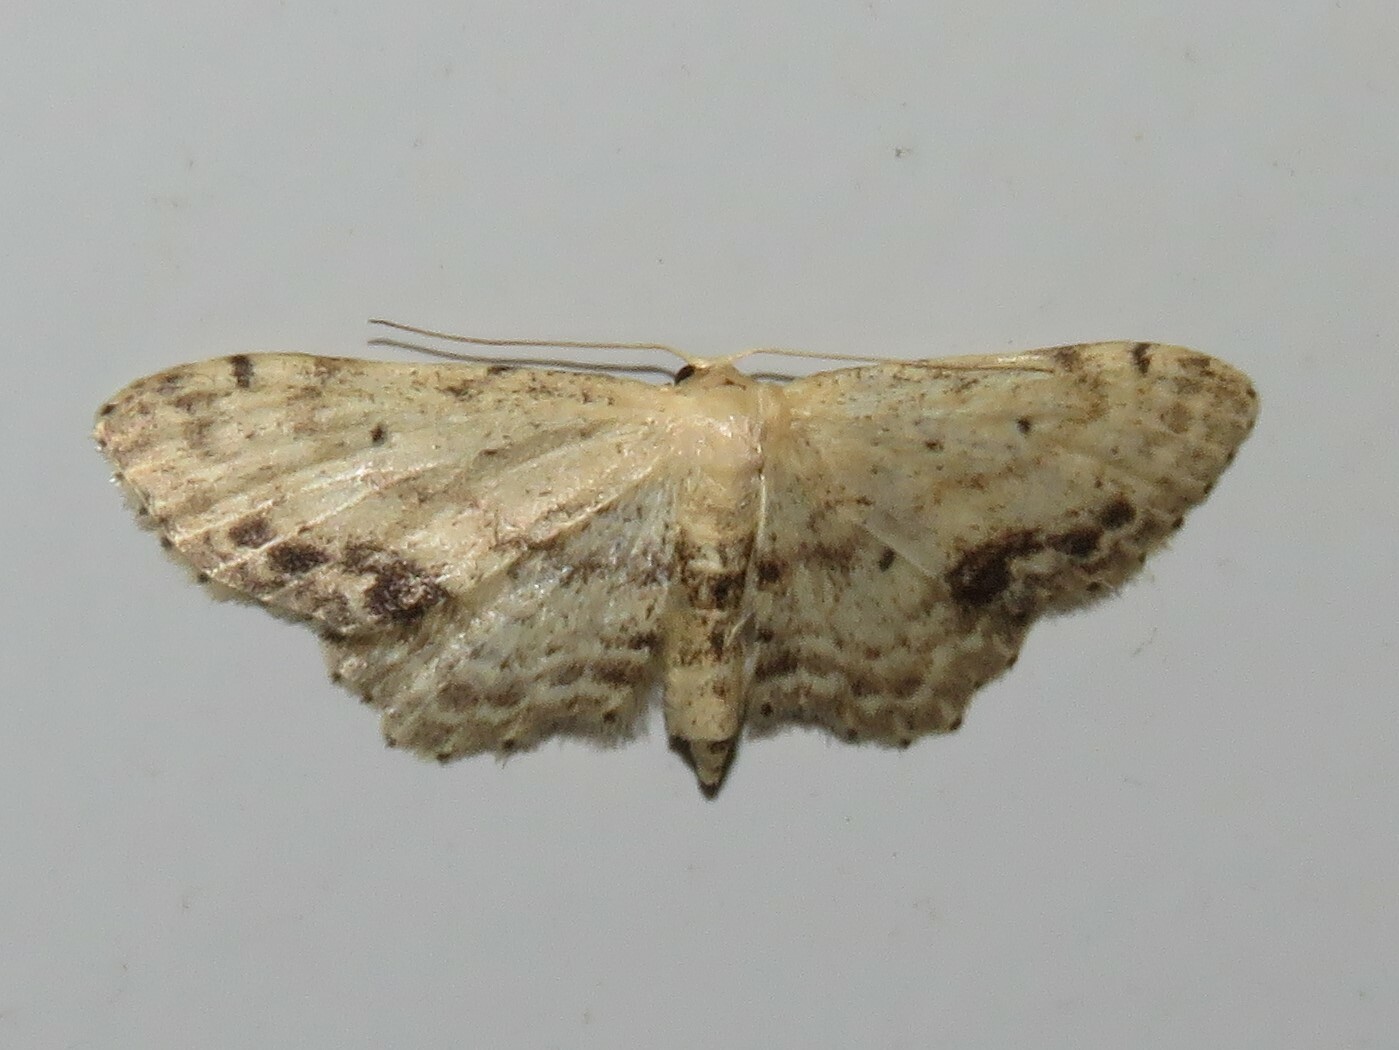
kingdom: Animalia
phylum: Arthropoda
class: Insecta
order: Lepidoptera
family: Geometridae
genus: Idaea
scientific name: Idaea dimidiata
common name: Single-dotted wave
